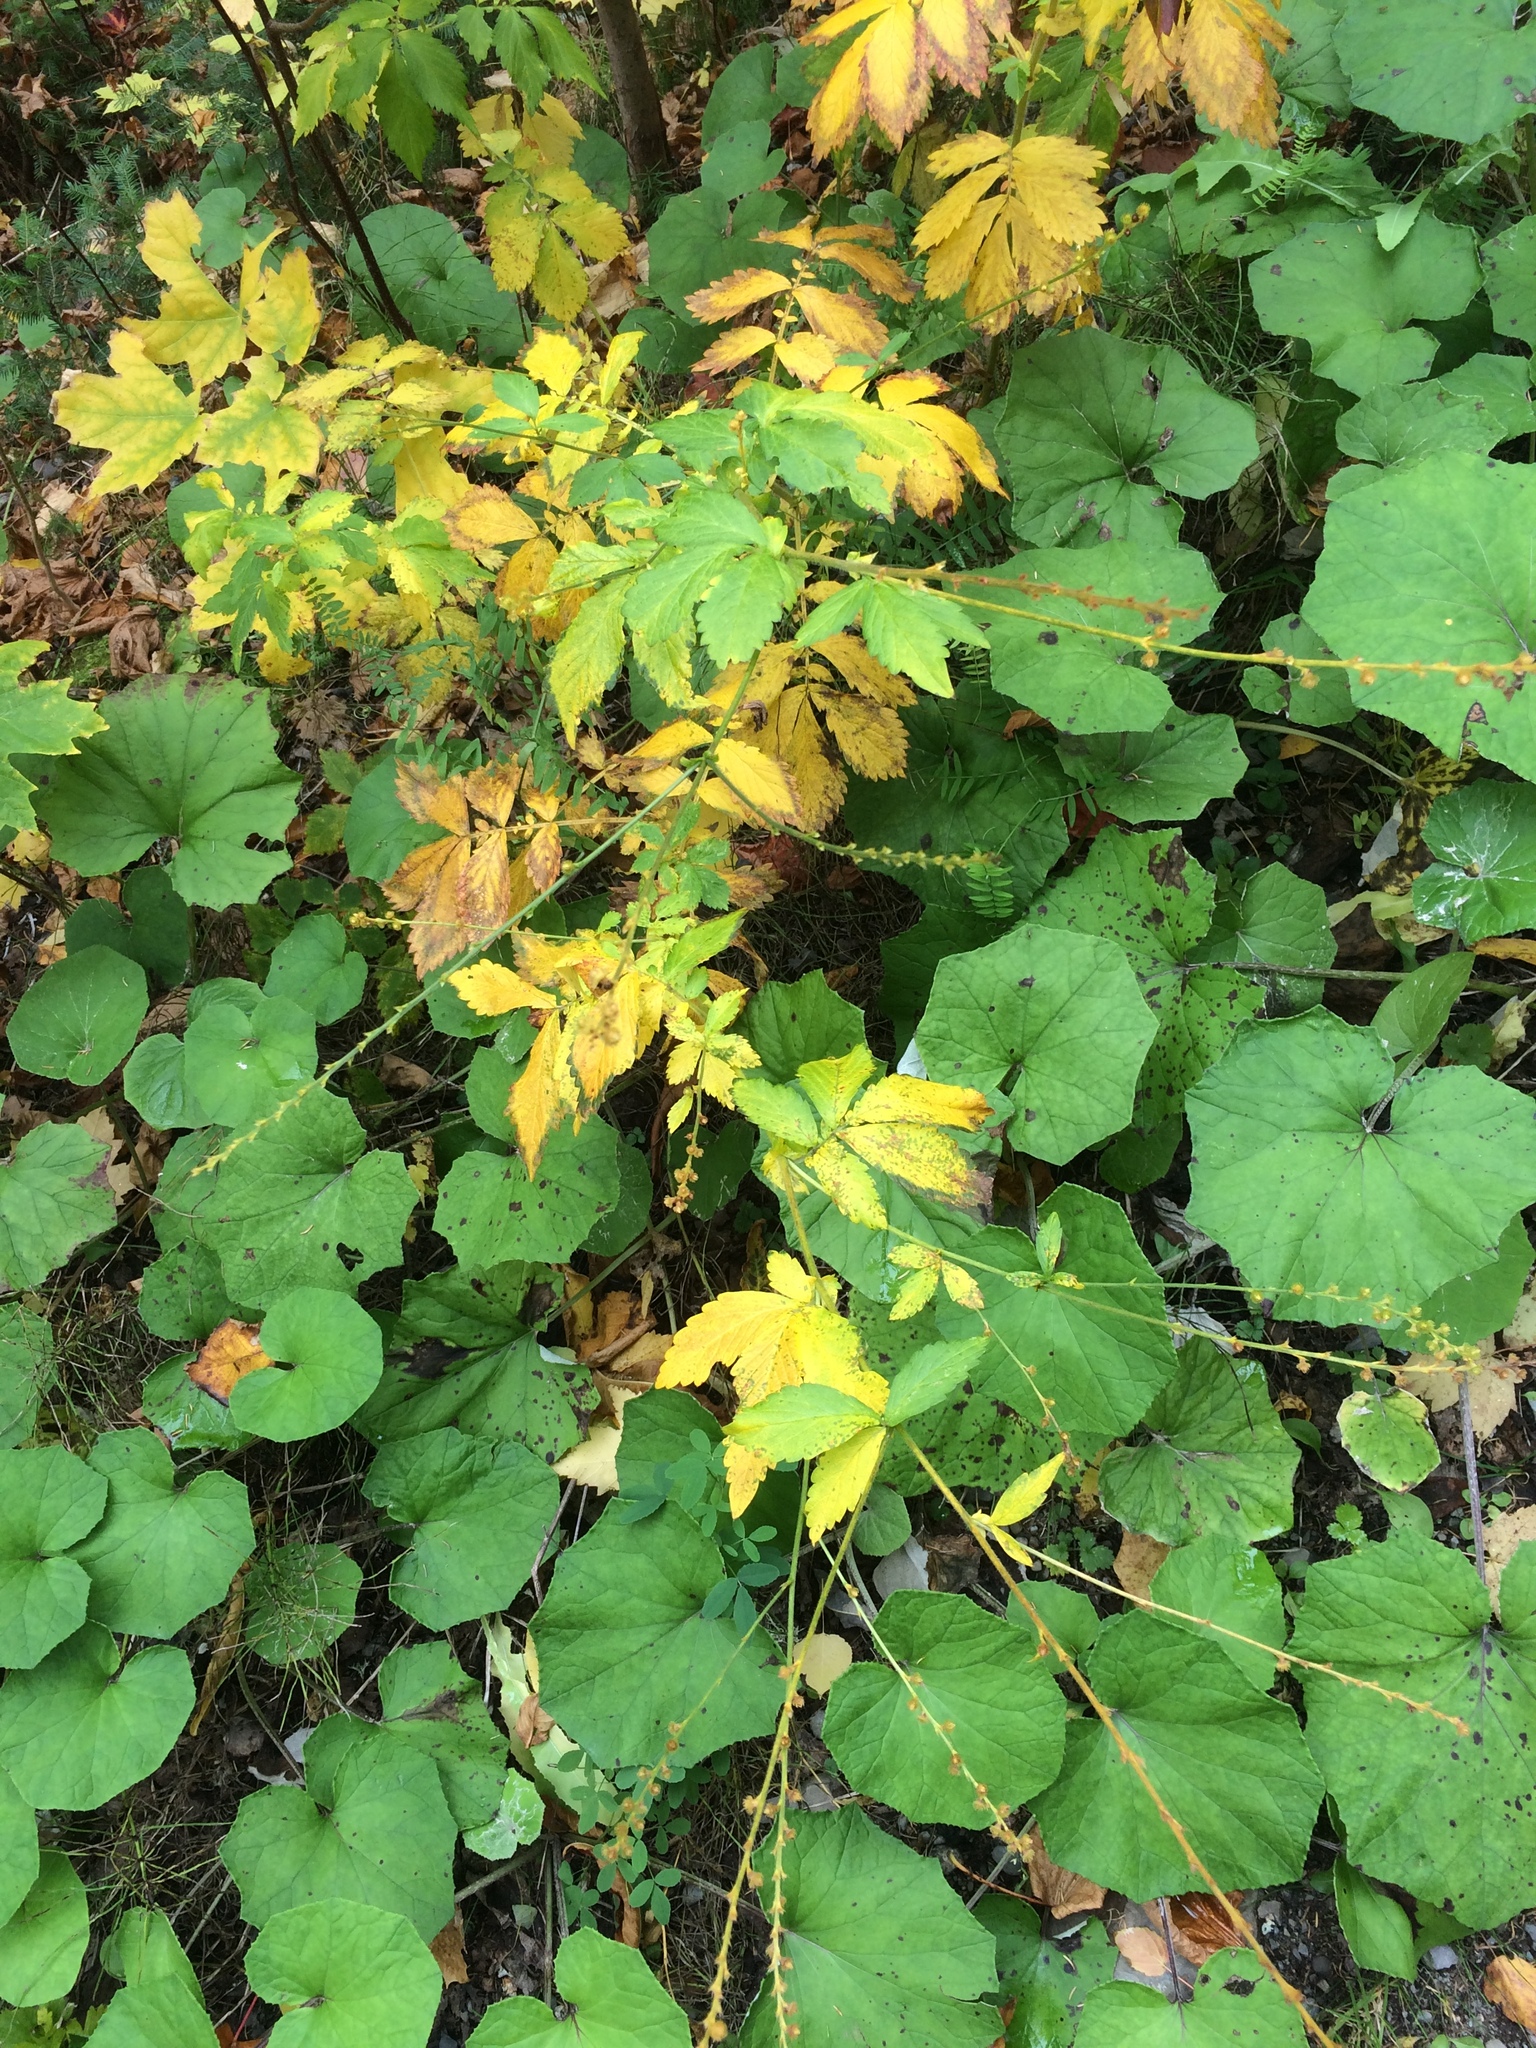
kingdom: Plantae
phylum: Tracheophyta
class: Magnoliopsida
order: Rosales
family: Rosaceae
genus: Agrimonia
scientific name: Agrimonia striata
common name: Britton's agrimony
